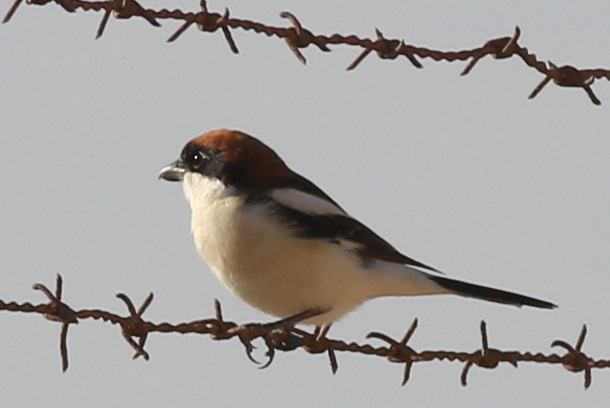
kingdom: Animalia
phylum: Chordata
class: Aves
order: Passeriformes
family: Laniidae
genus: Lanius
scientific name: Lanius senator
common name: Woodchat shrike
